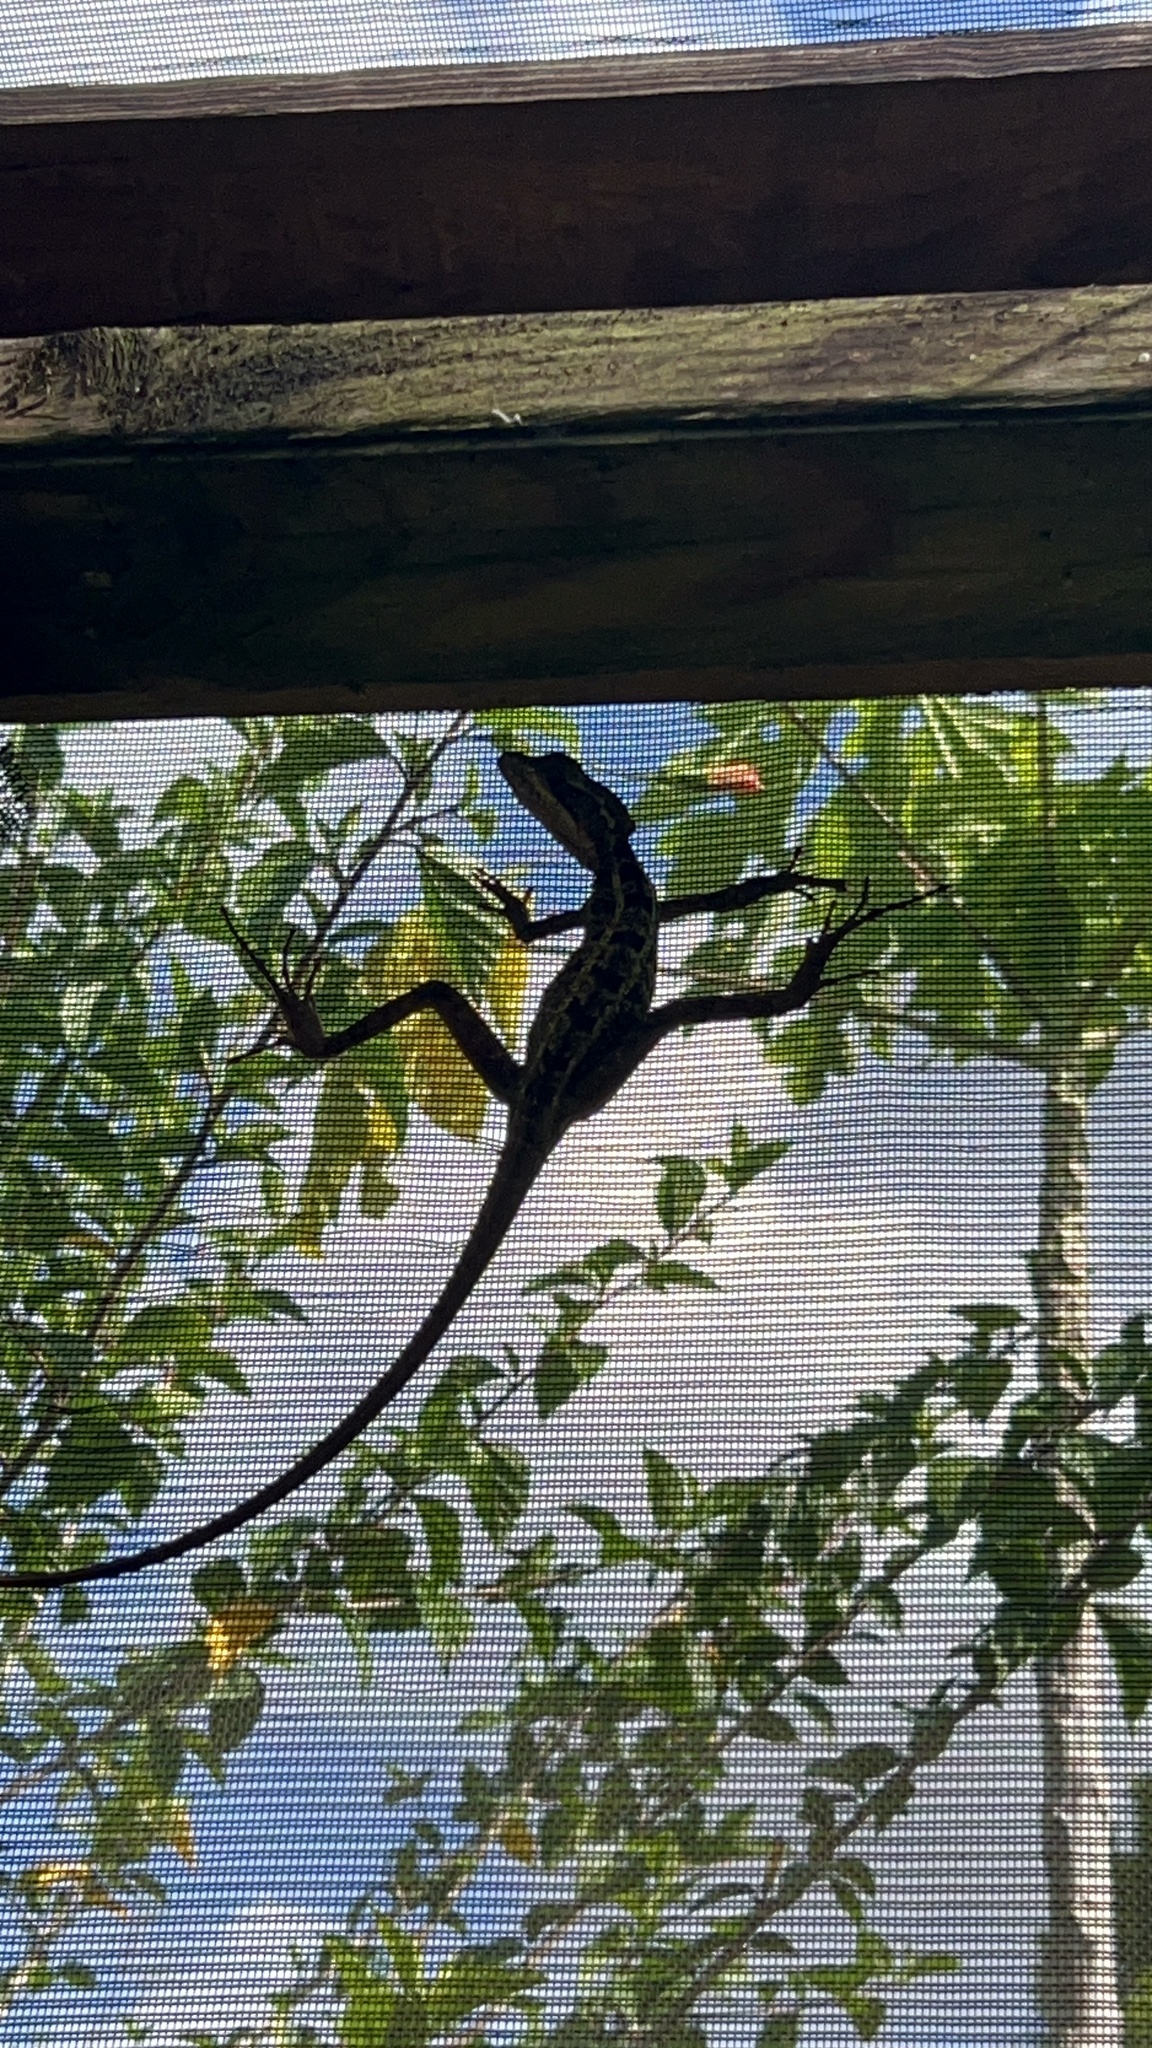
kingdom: Animalia
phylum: Chordata
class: Squamata
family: Corytophanidae
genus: Basiliscus
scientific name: Basiliscus vittatus
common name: Brown basilisk
